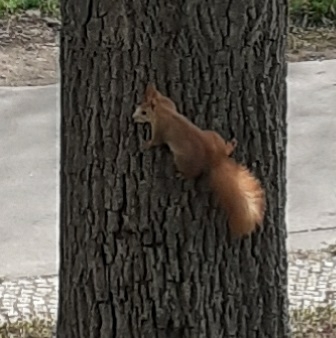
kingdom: Animalia
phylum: Chordata
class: Mammalia
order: Rodentia
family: Sciuridae
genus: Sciurus
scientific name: Sciurus vulgaris
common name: Eurasian red squirrel
